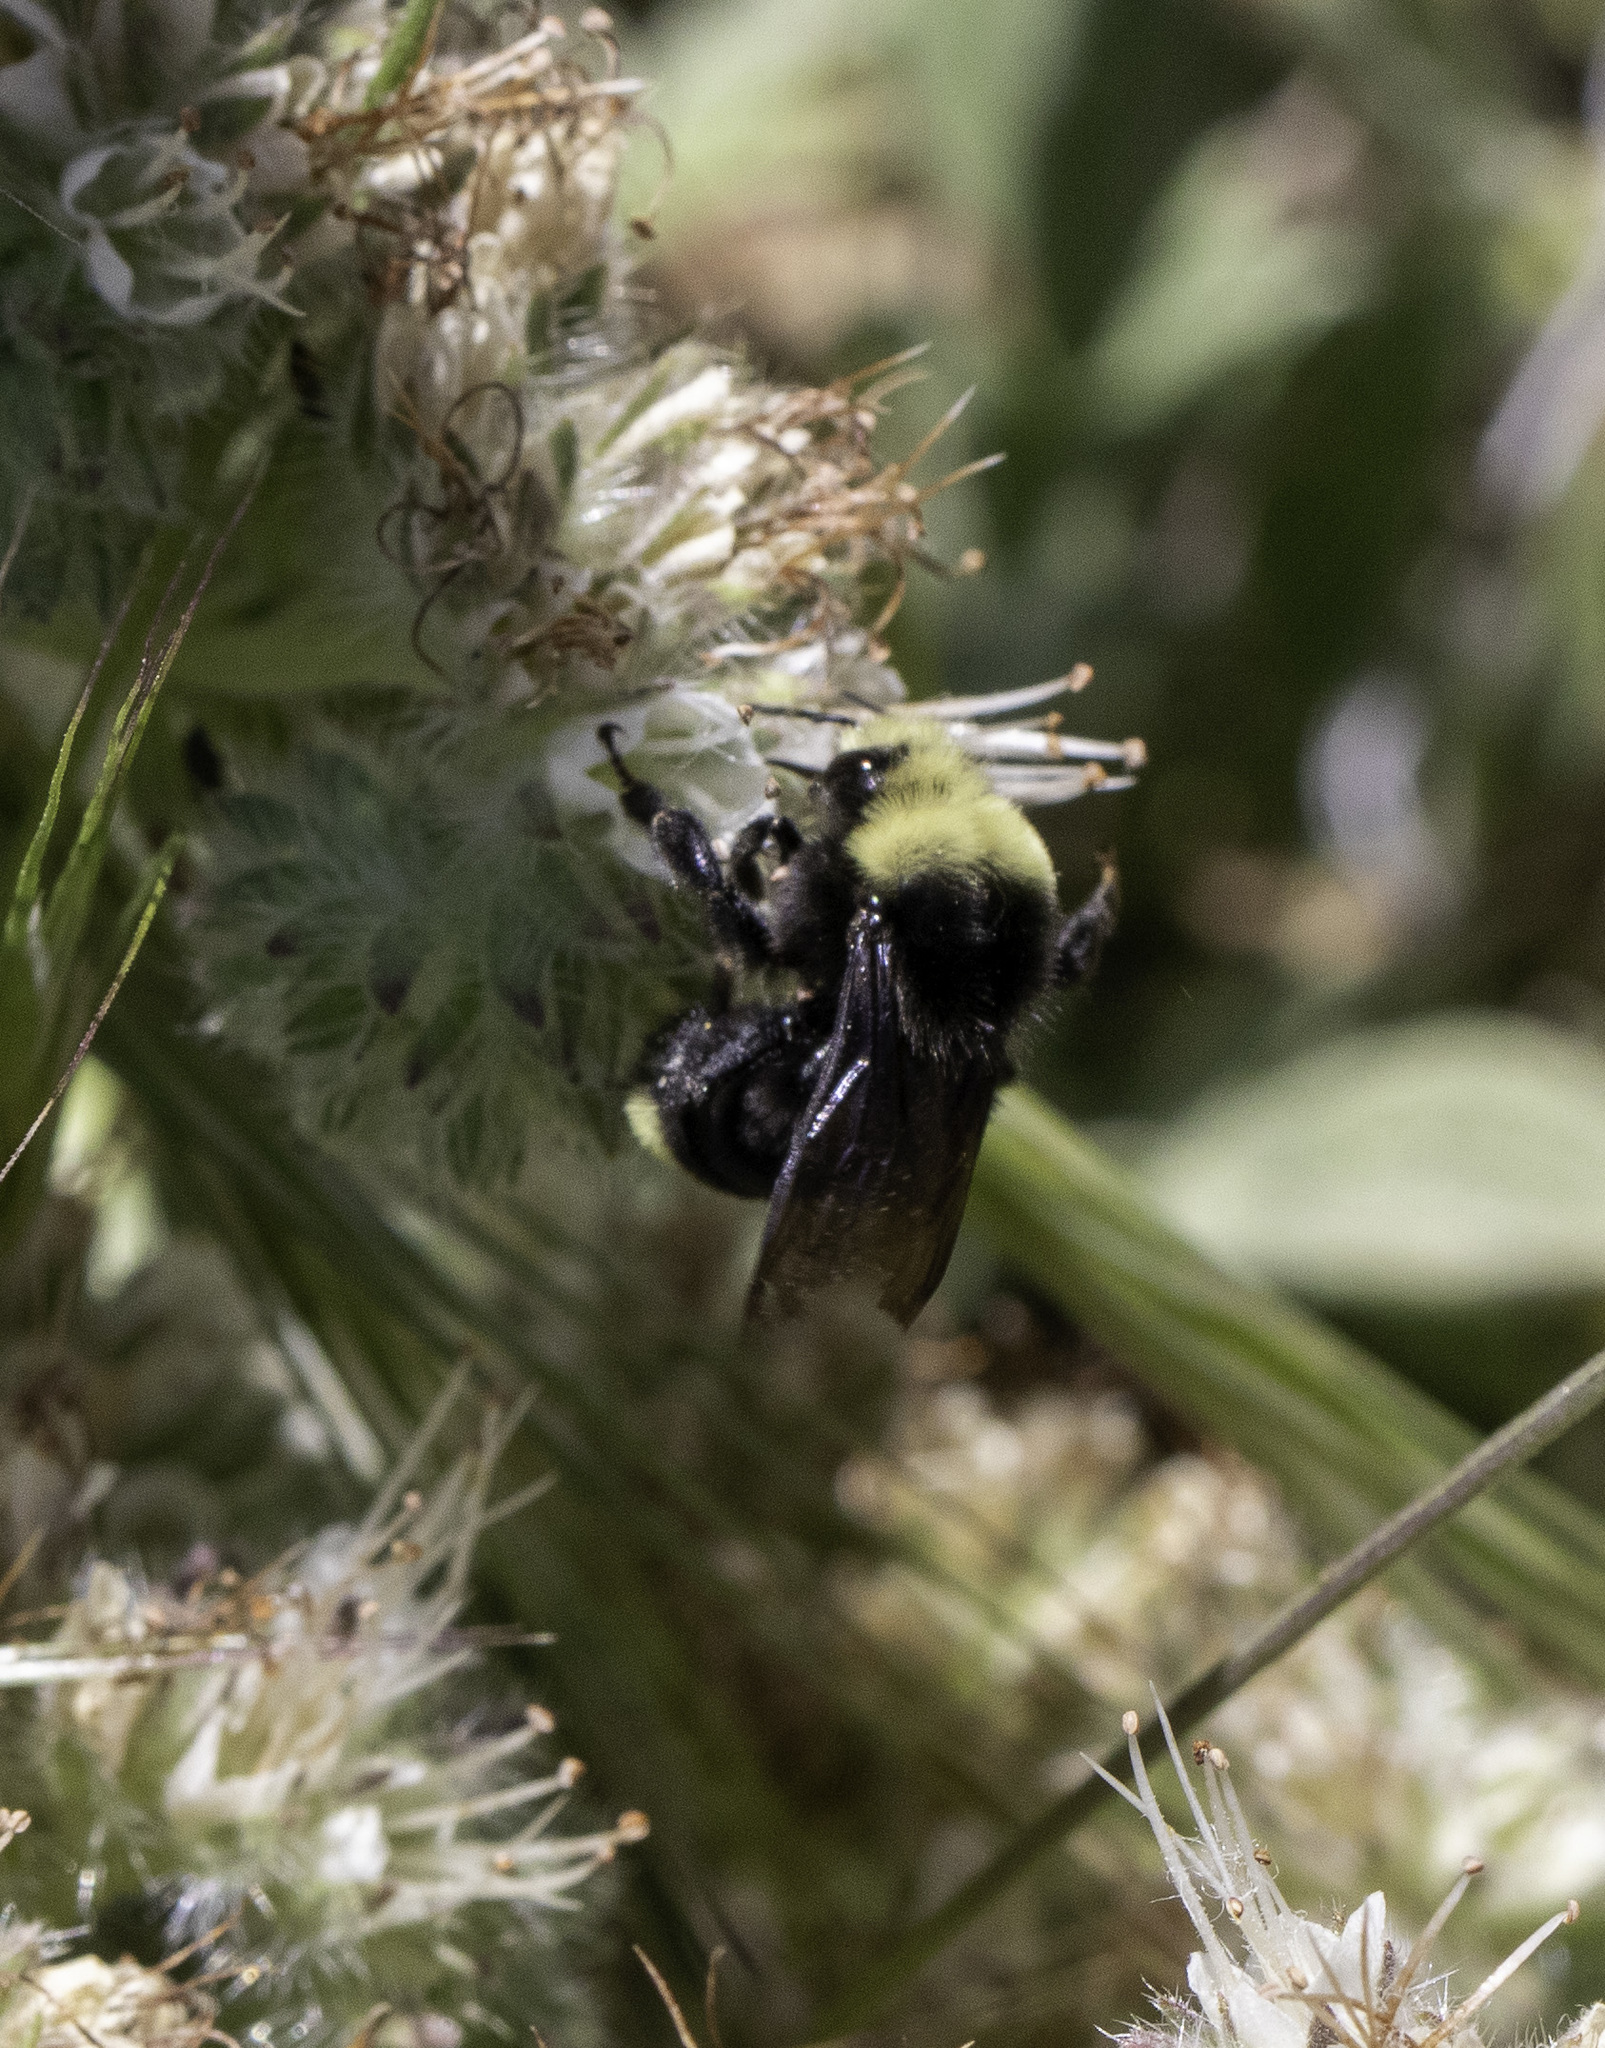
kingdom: Animalia
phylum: Arthropoda
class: Insecta
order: Hymenoptera
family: Apidae
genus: Bombus
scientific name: Bombus vosnesenskii
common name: Vosnesensky bumble bee
